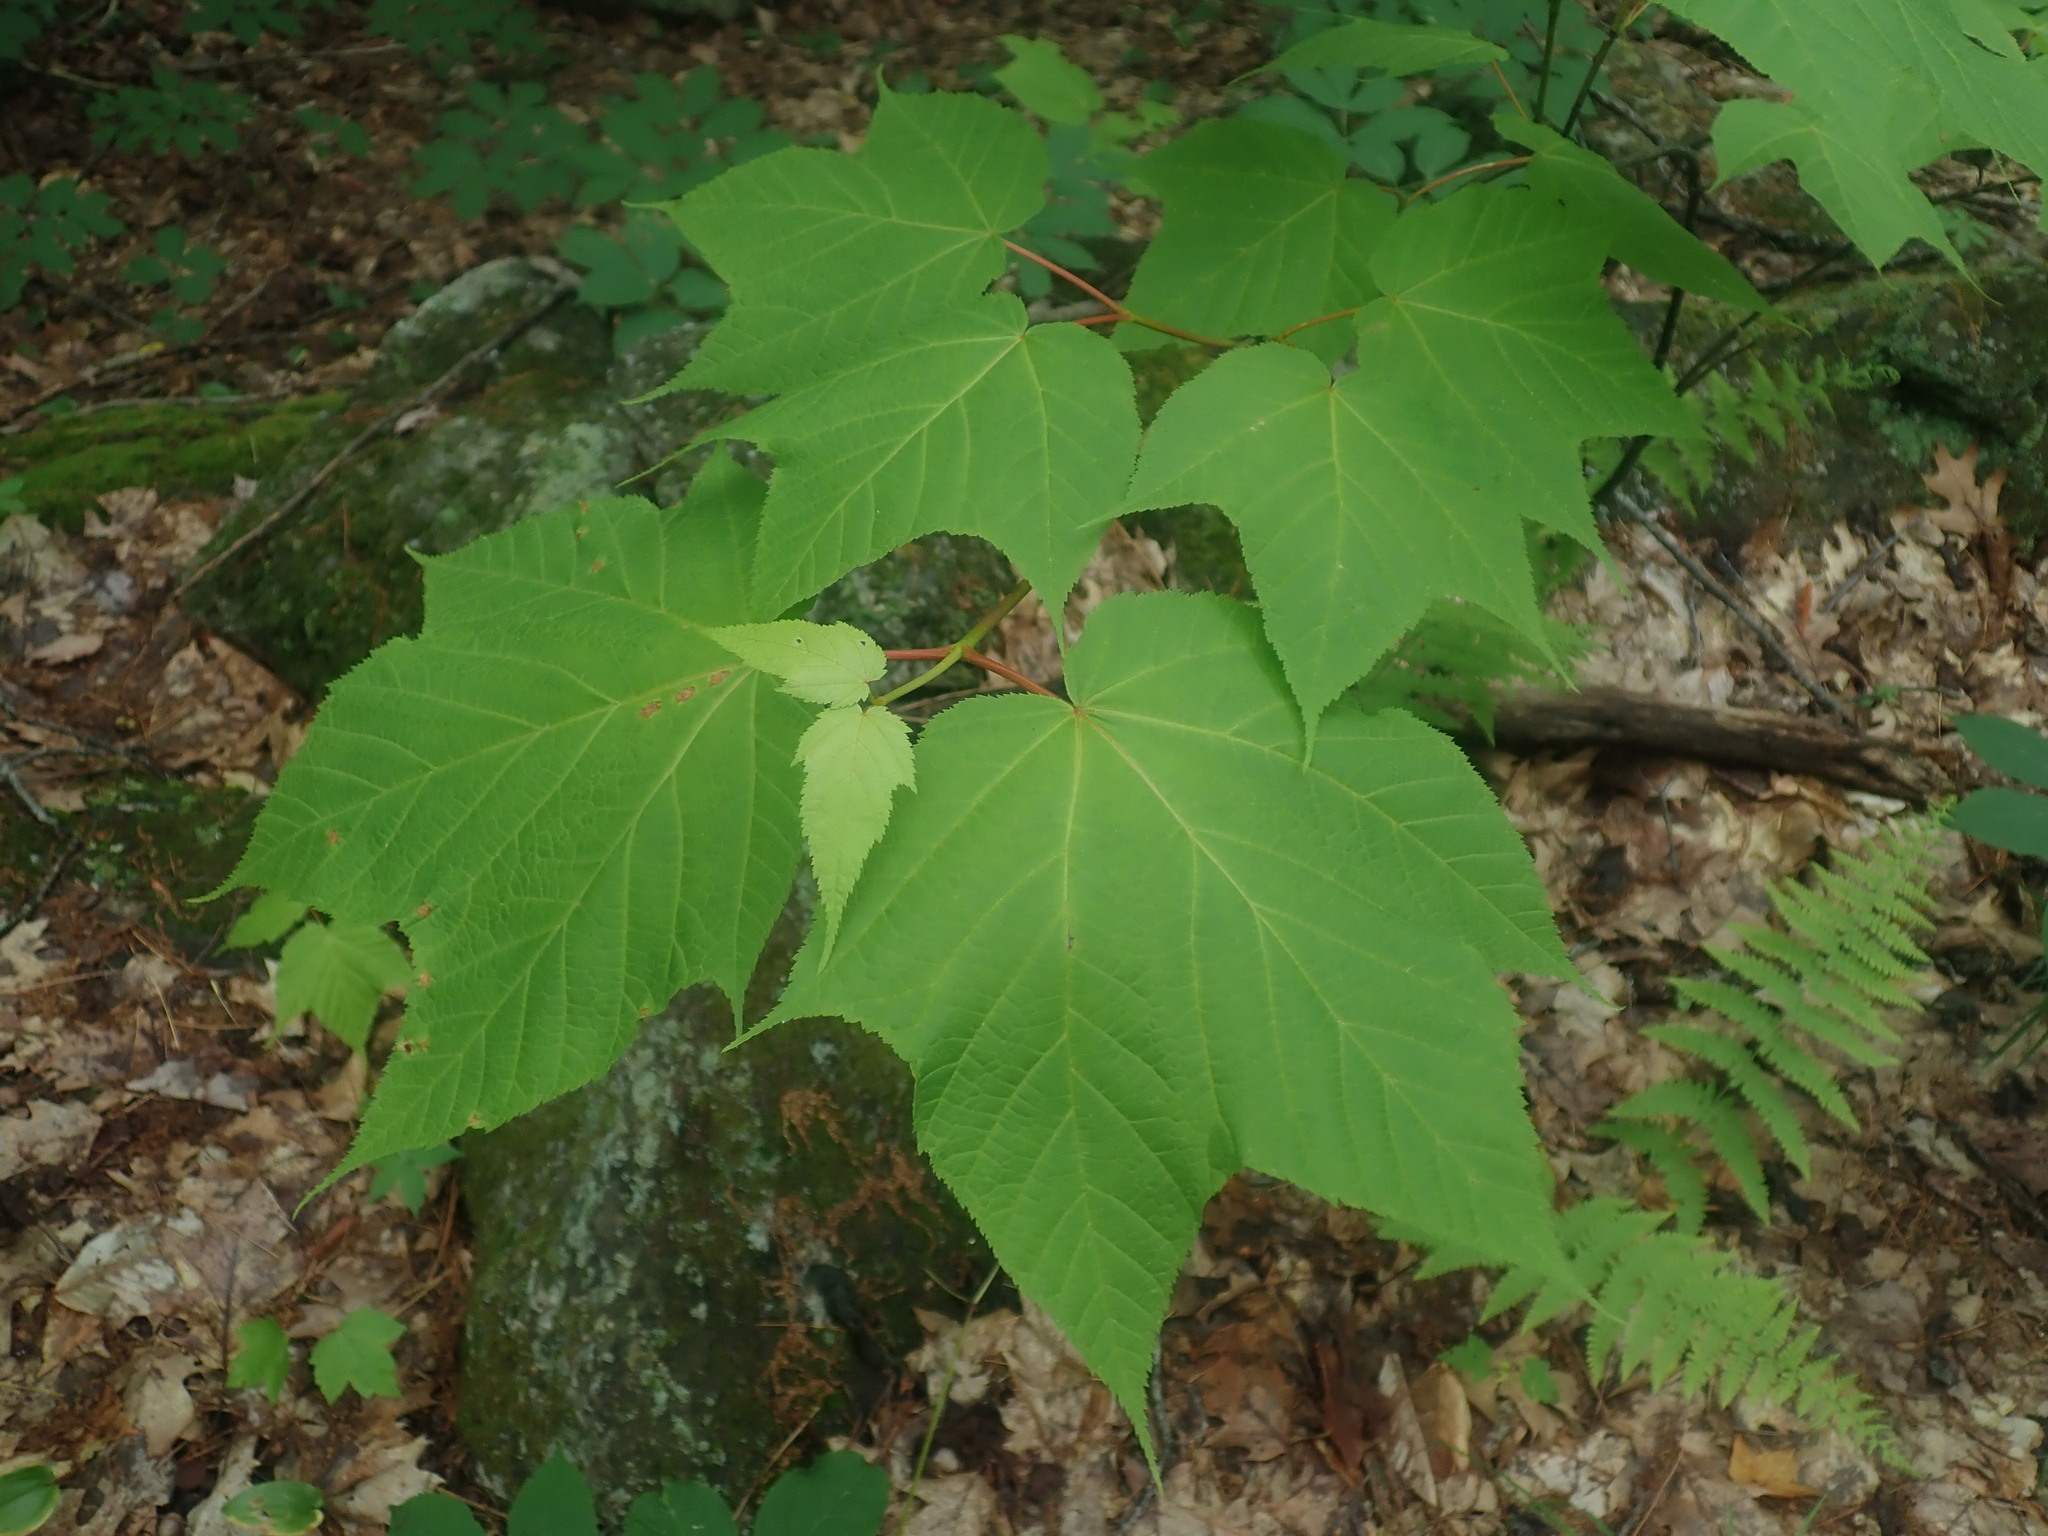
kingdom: Plantae
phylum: Tracheophyta
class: Magnoliopsida
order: Sapindales
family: Sapindaceae
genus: Acer
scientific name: Acer pensylvanicum
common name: Moosewood
